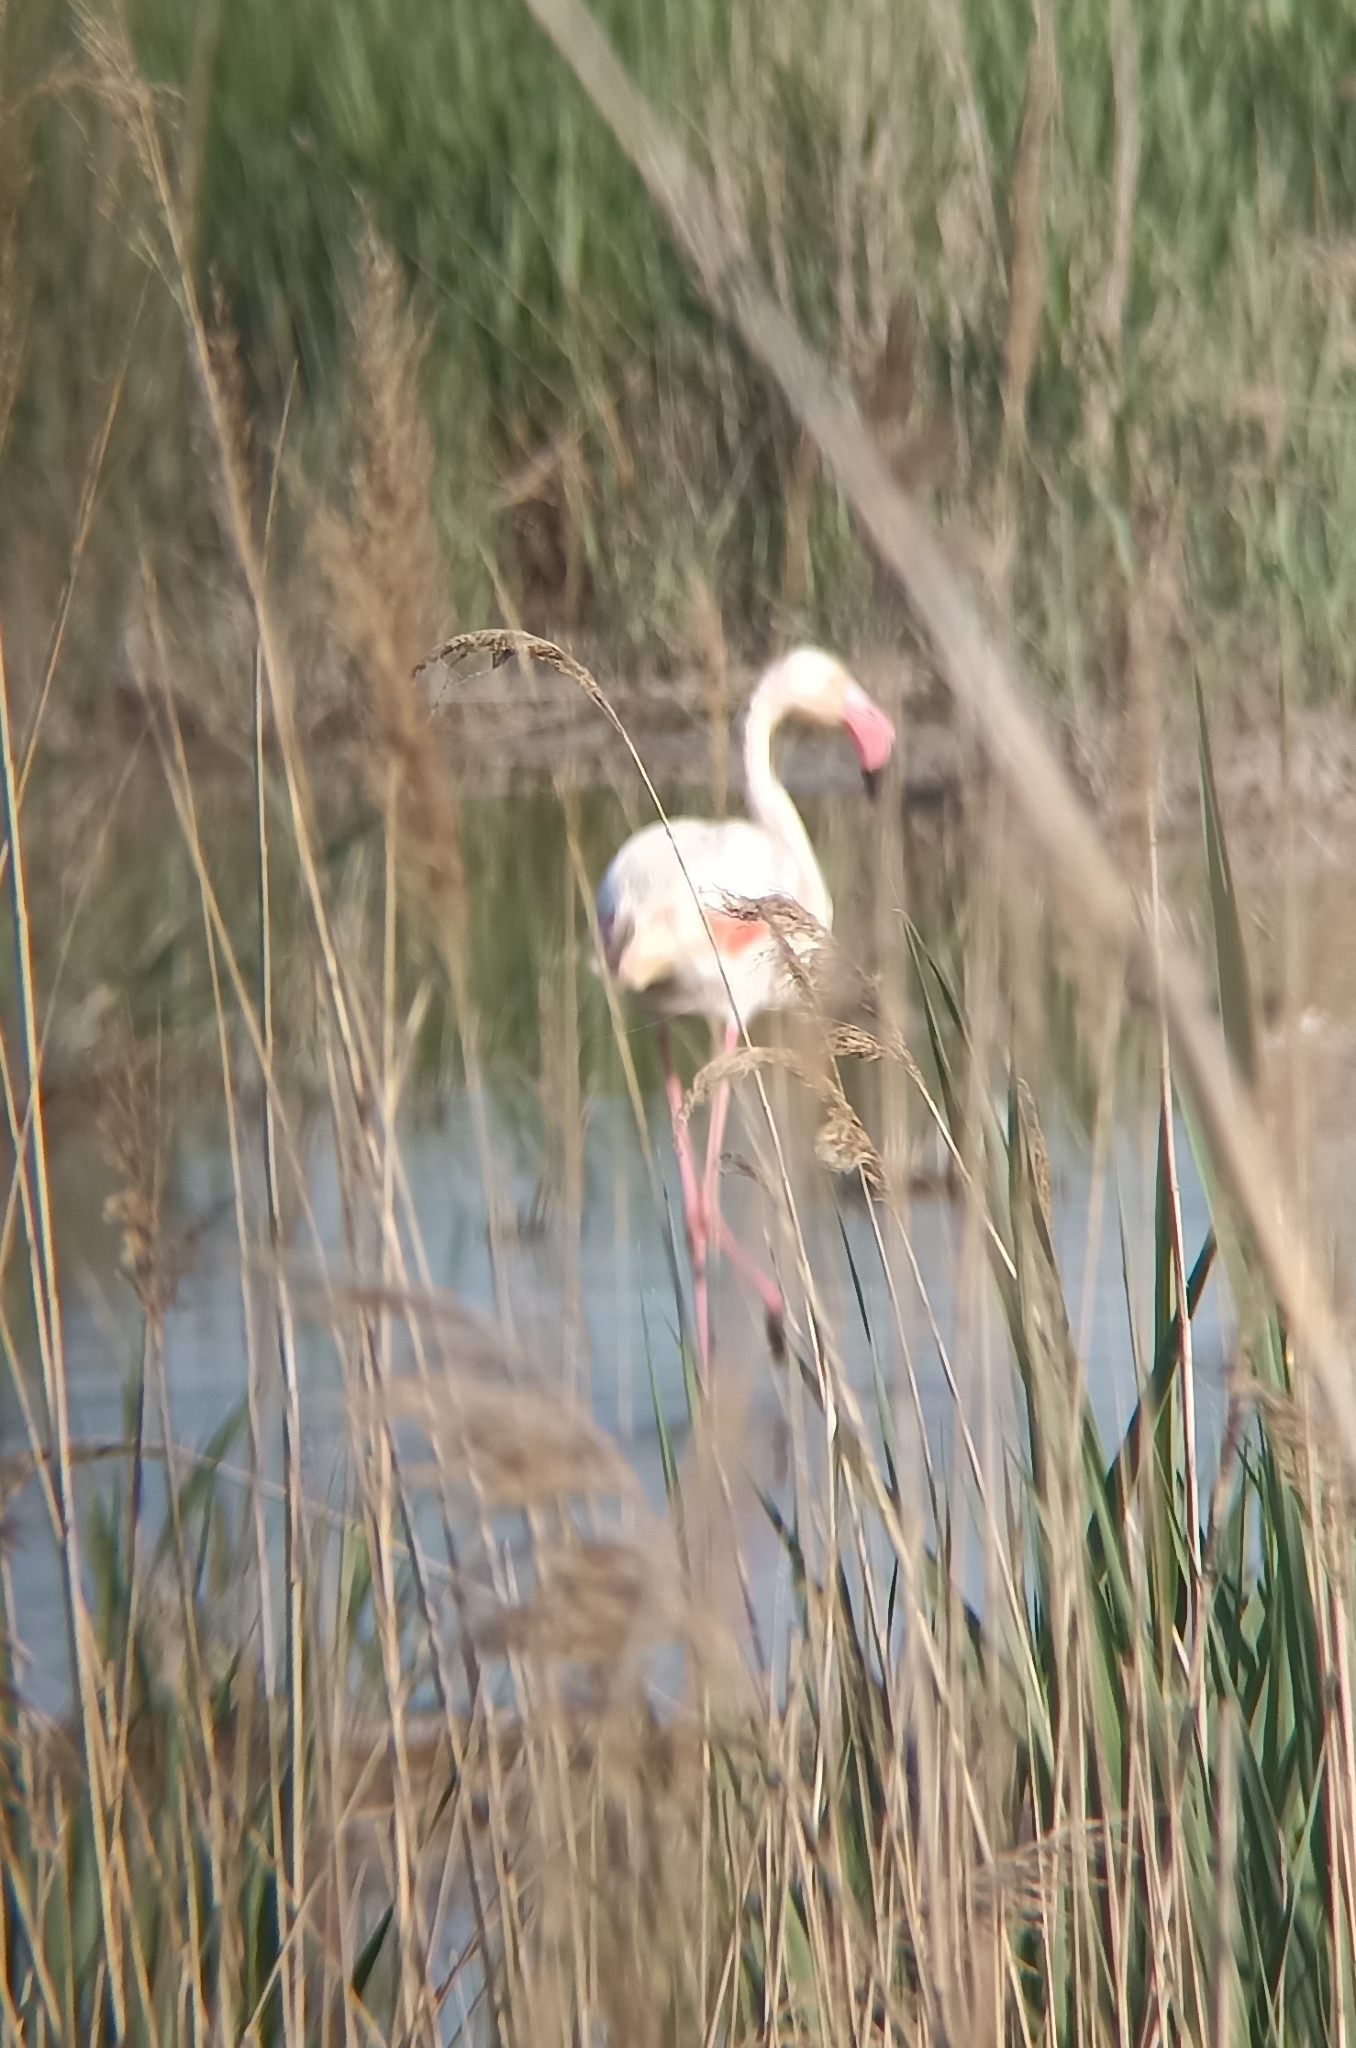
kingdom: Animalia
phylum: Chordata
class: Aves
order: Phoenicopteriformes
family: Phoenicopteridae
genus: Phoenicopterus
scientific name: Phoenicopterus roseus
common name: Greater flamingo
